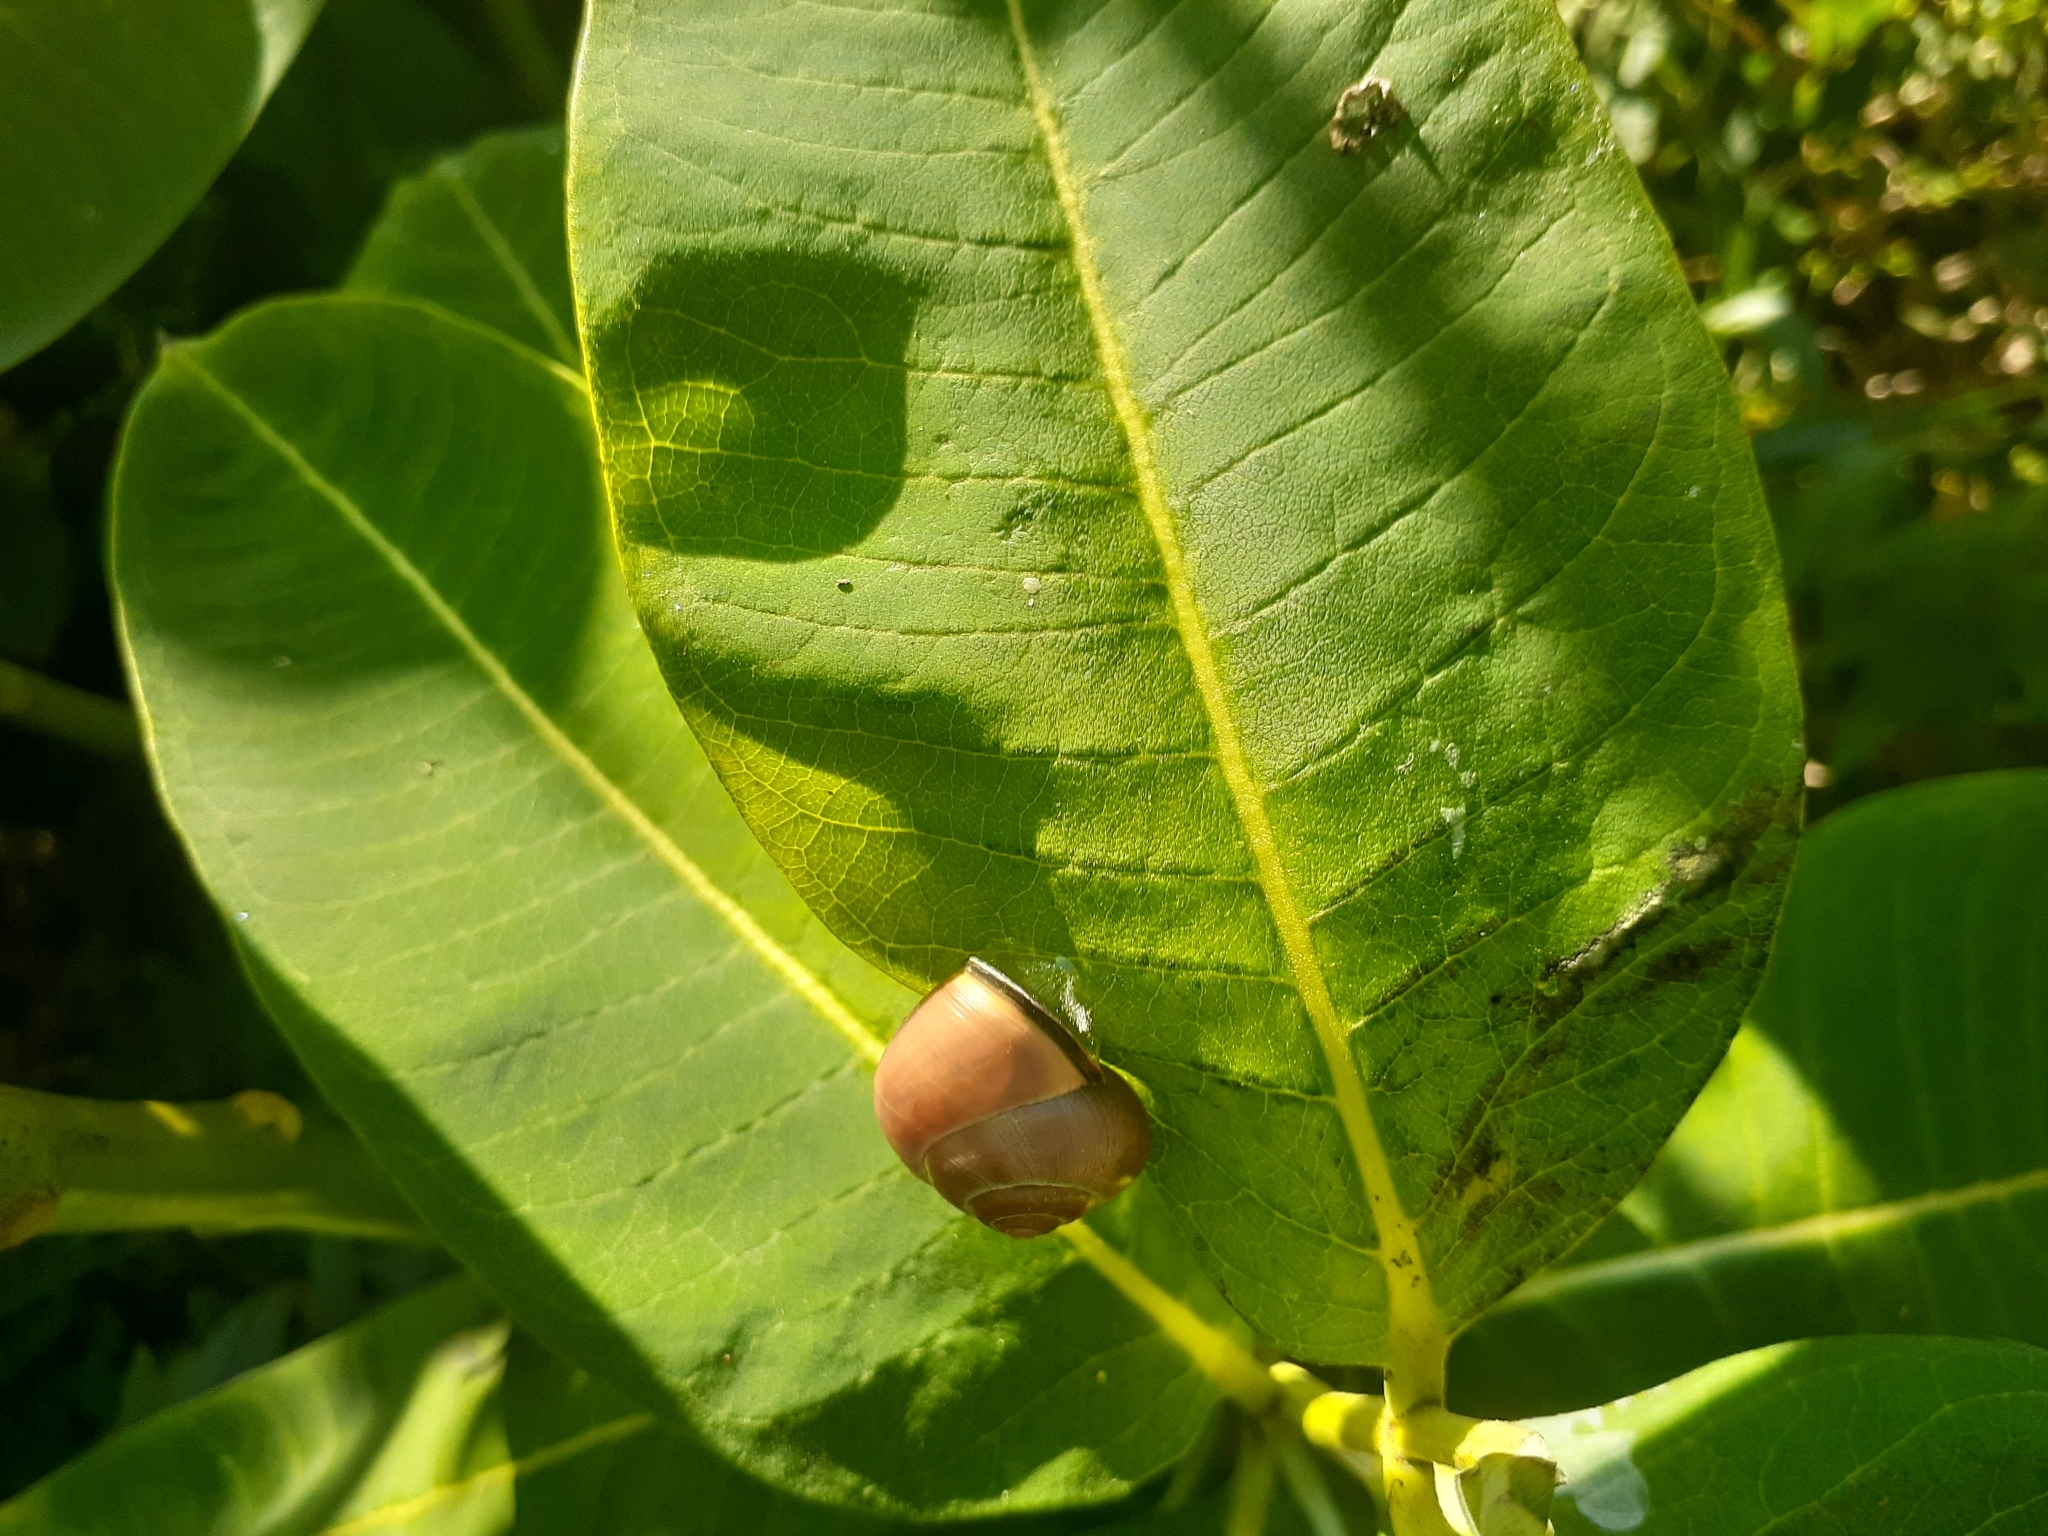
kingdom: Animalia
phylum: Mollusca
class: Gastropoda
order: Stylommatophora
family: Helicidae
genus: Cepaea
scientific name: Cepaea nemoralis
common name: Grovesnail
